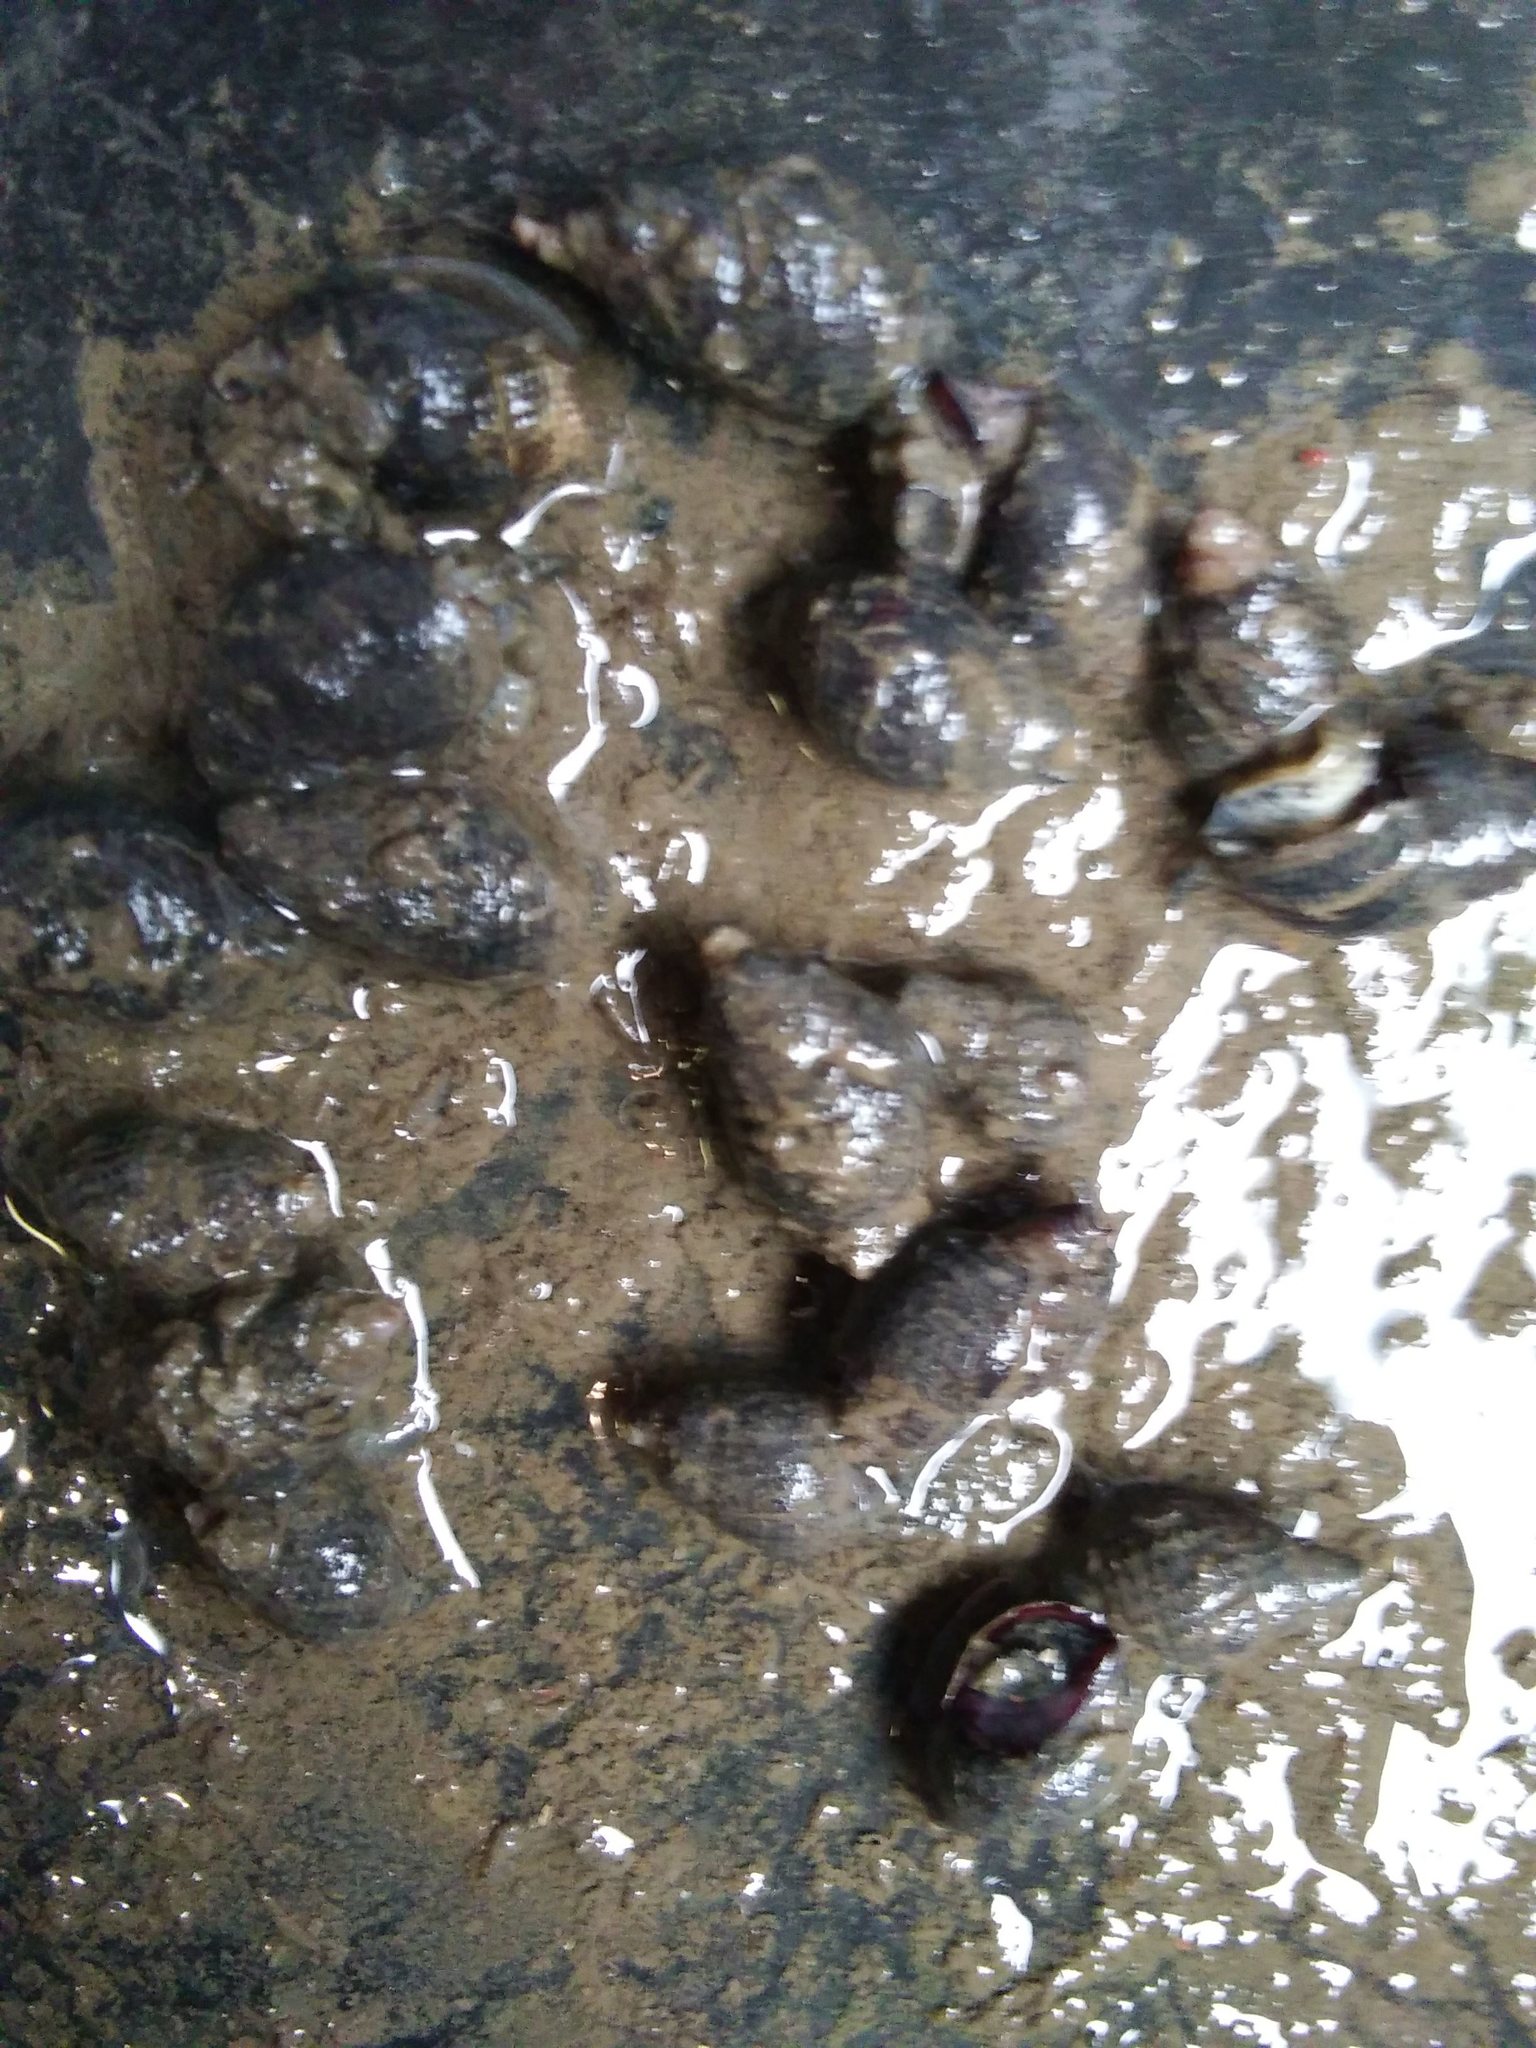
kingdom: Animalia
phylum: Mollusca
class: Gastropoda
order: Neogastropoda
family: Nassariidae
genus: Ilyanassa
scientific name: Ilyanassa obsoleta
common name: Eastern mudsnail
